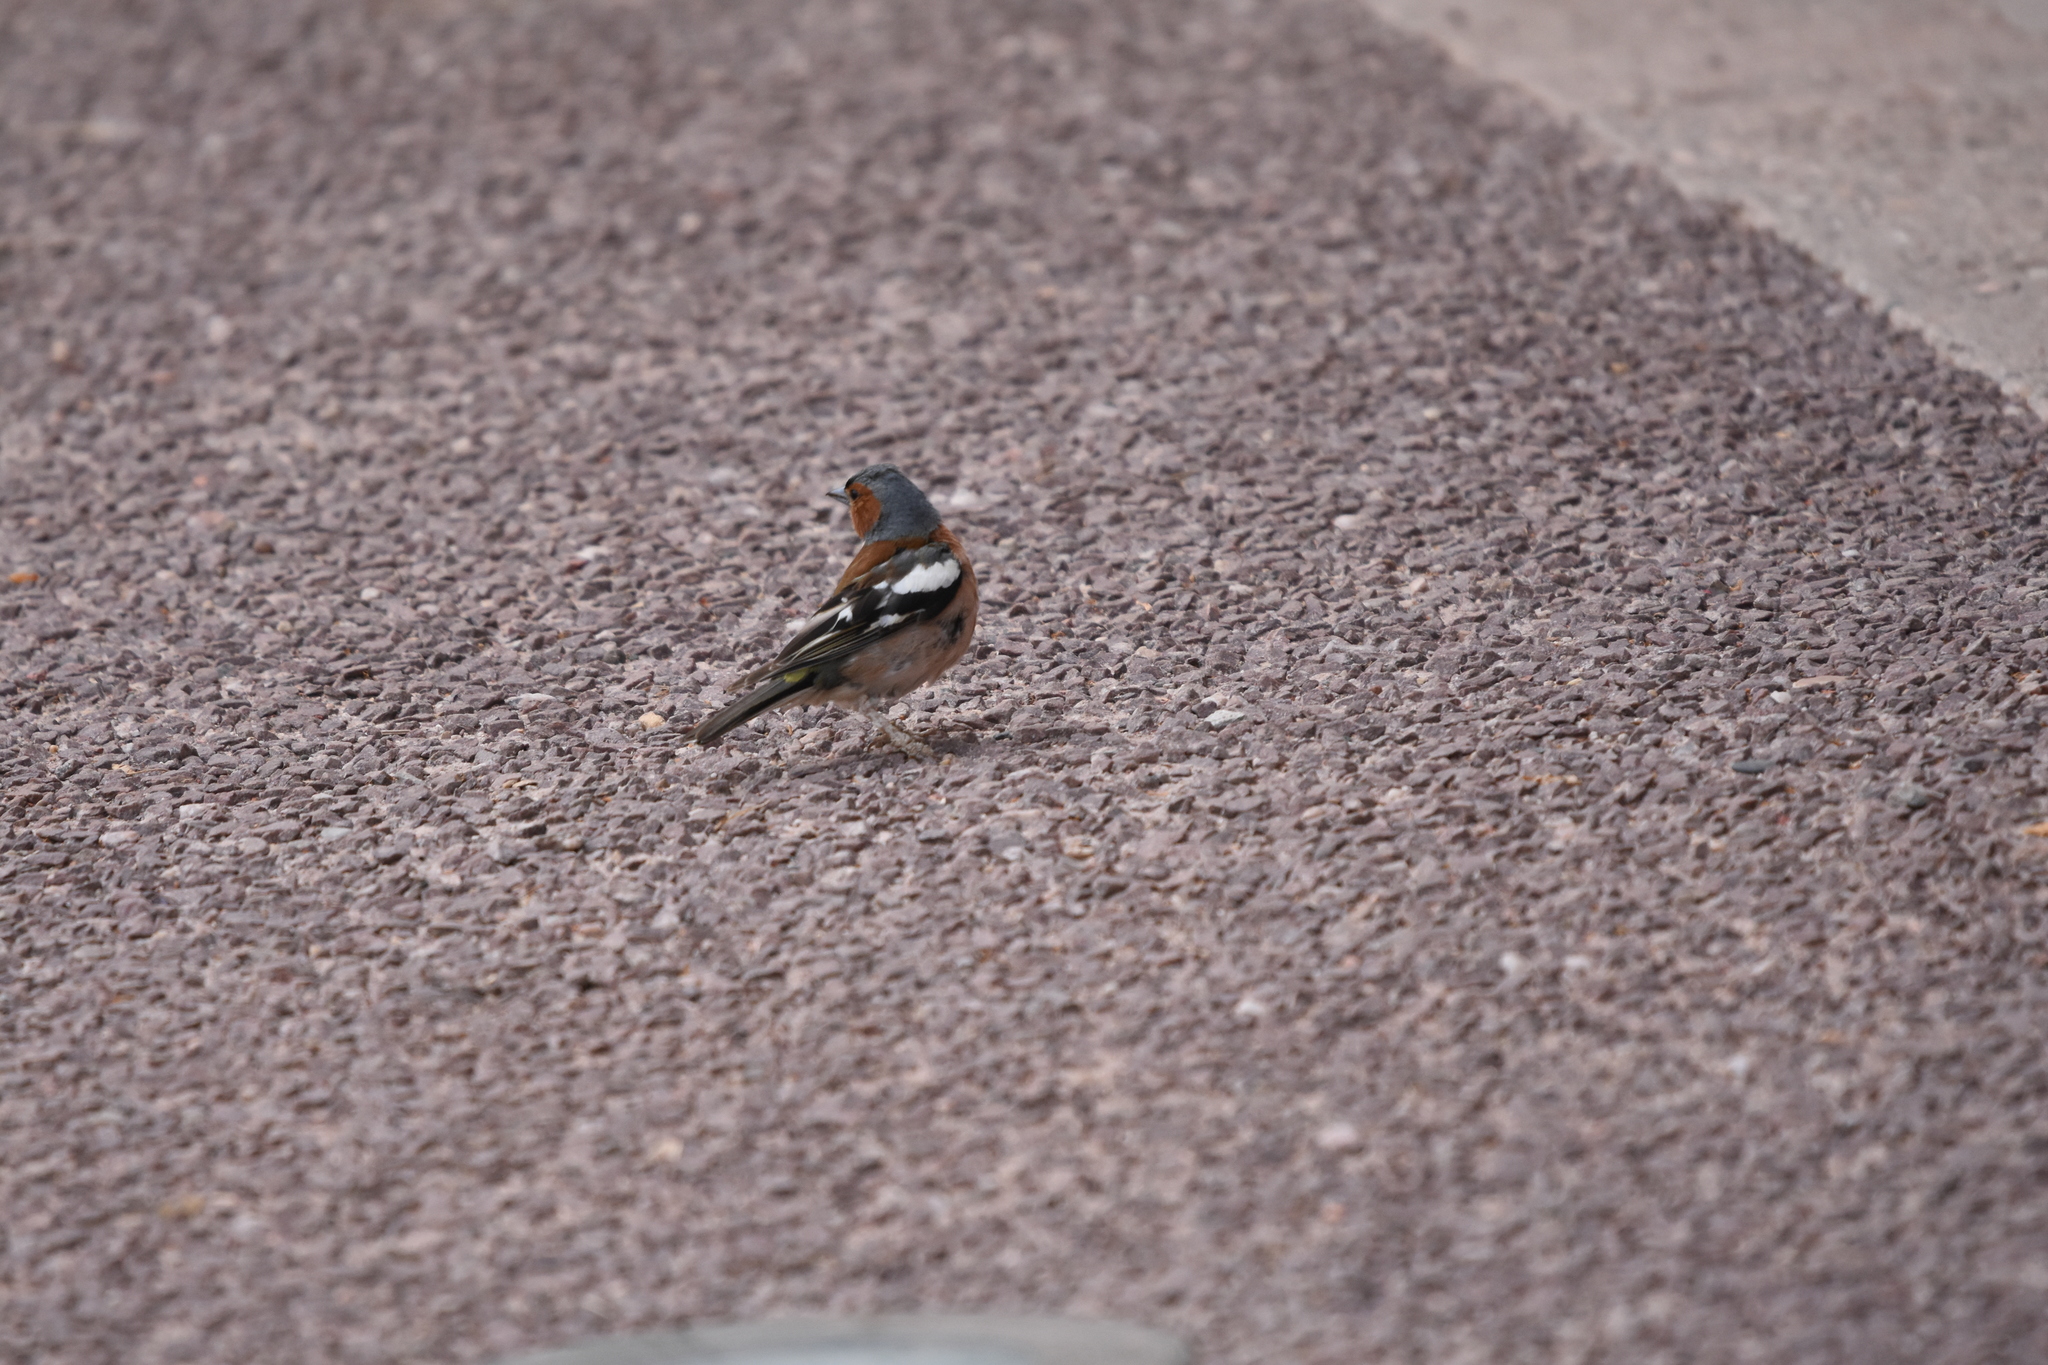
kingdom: Animalia
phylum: Chordata
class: Aves
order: Passeriformes
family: Fringillidae
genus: Fringilla
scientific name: Fringilla coelebs
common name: Common chaffinch
